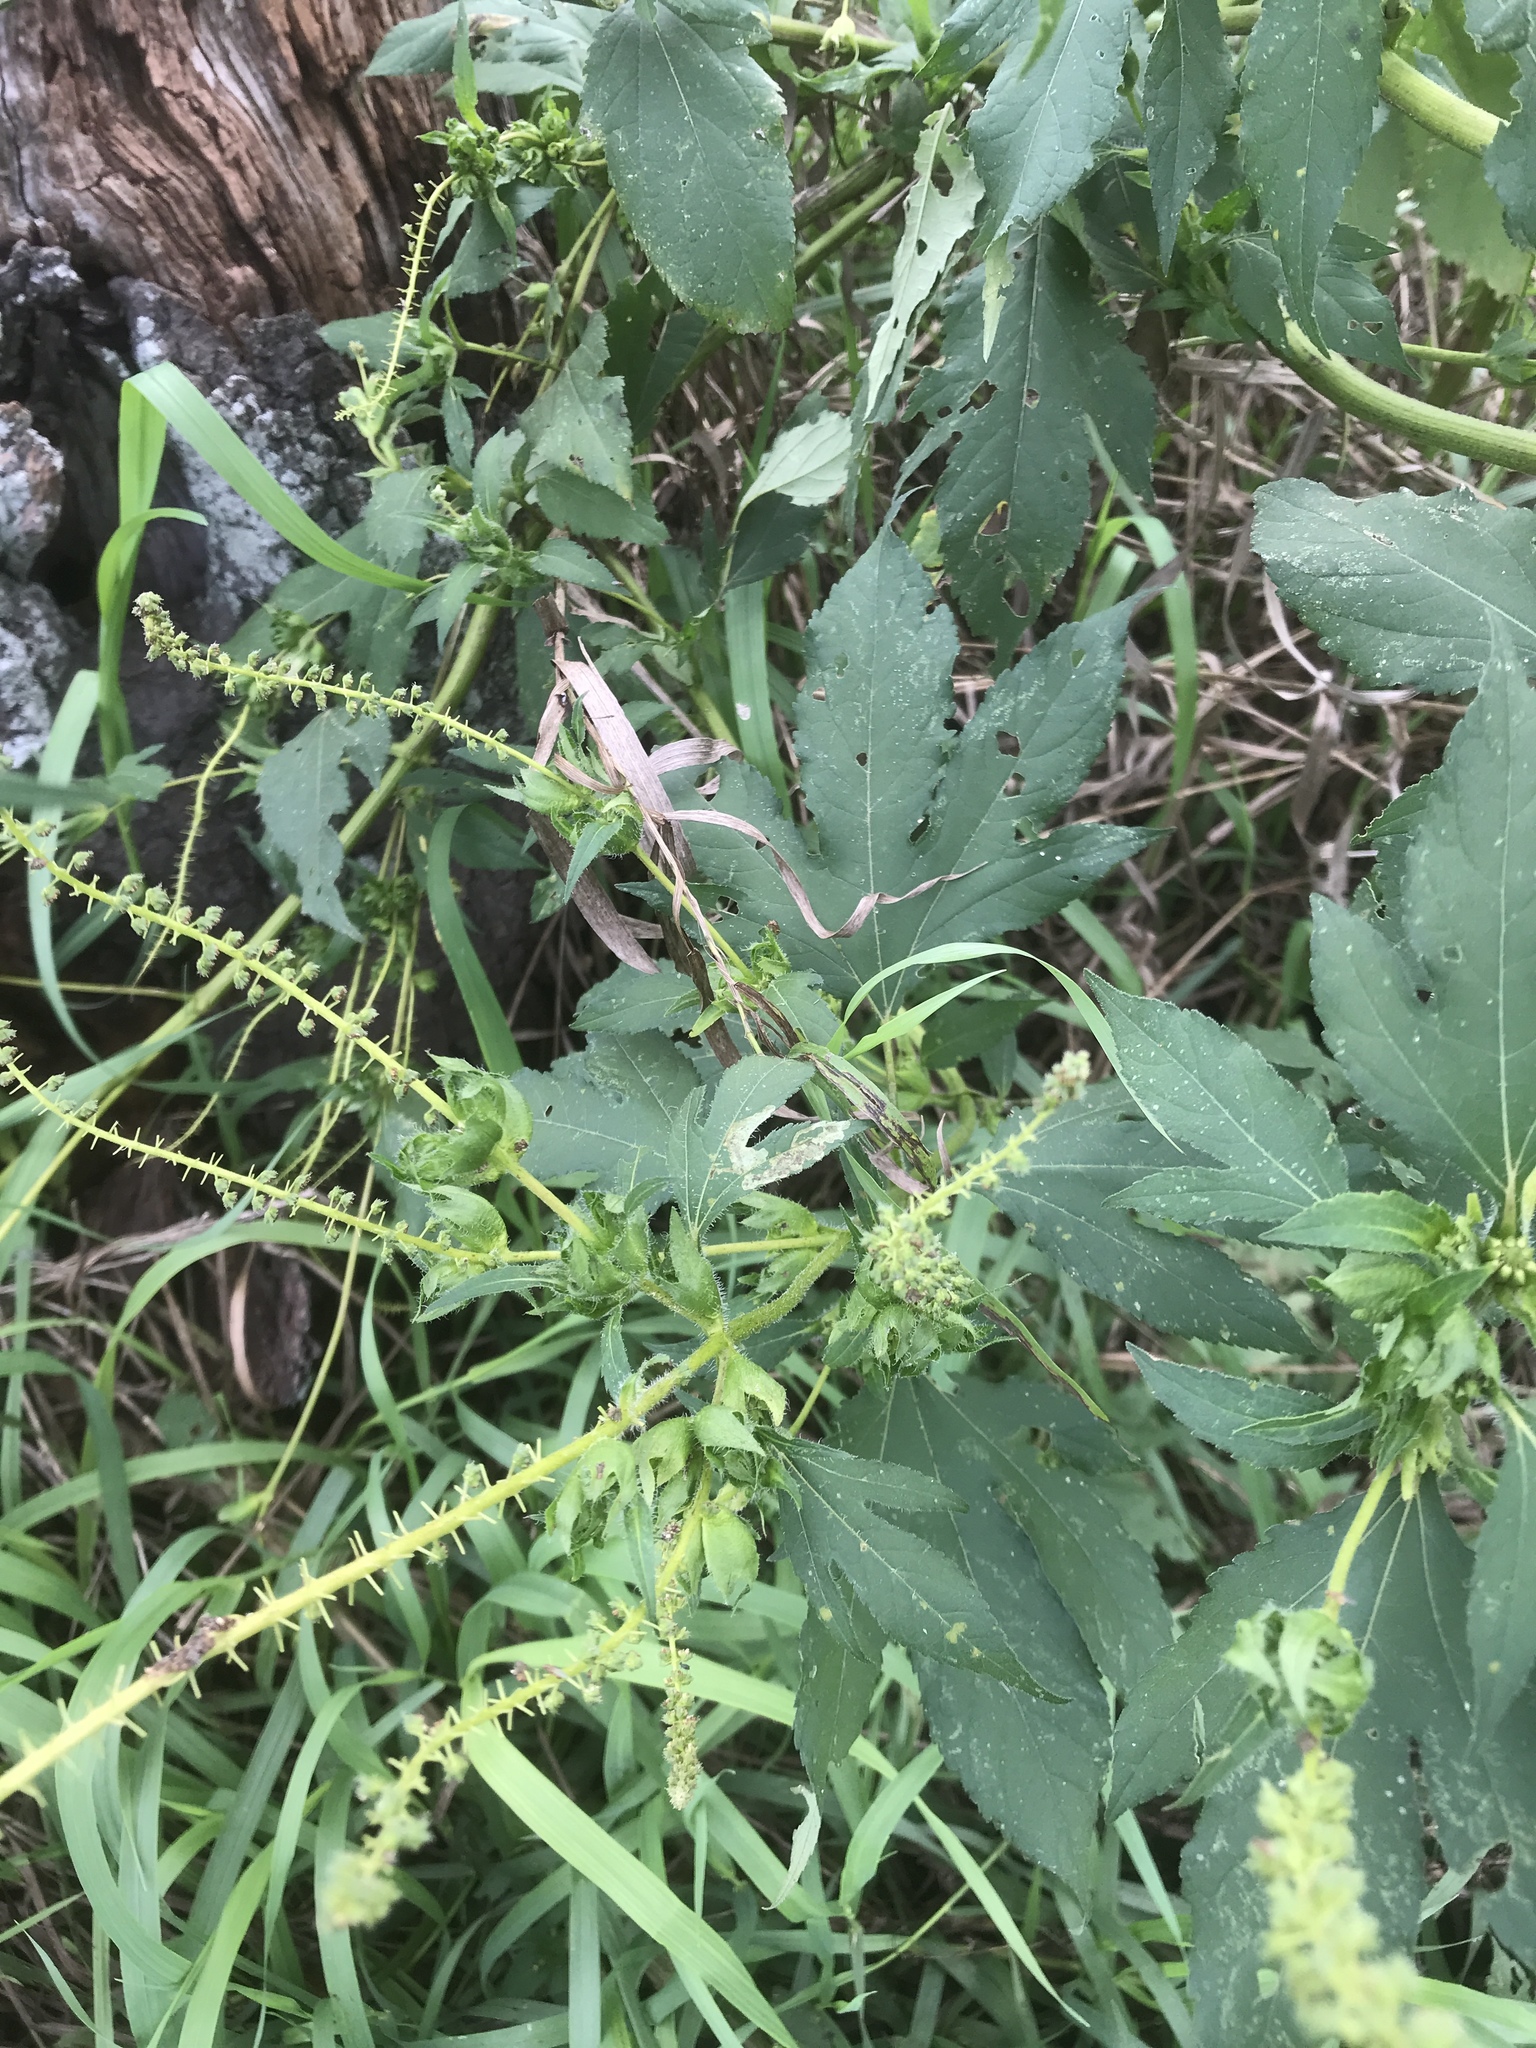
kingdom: Plantae
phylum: Tracheophyta
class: Magnoliopsida
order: Asterales
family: Asteraceae
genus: Ambrosia
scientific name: Ambrosia trifida
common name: Giant ragweed
